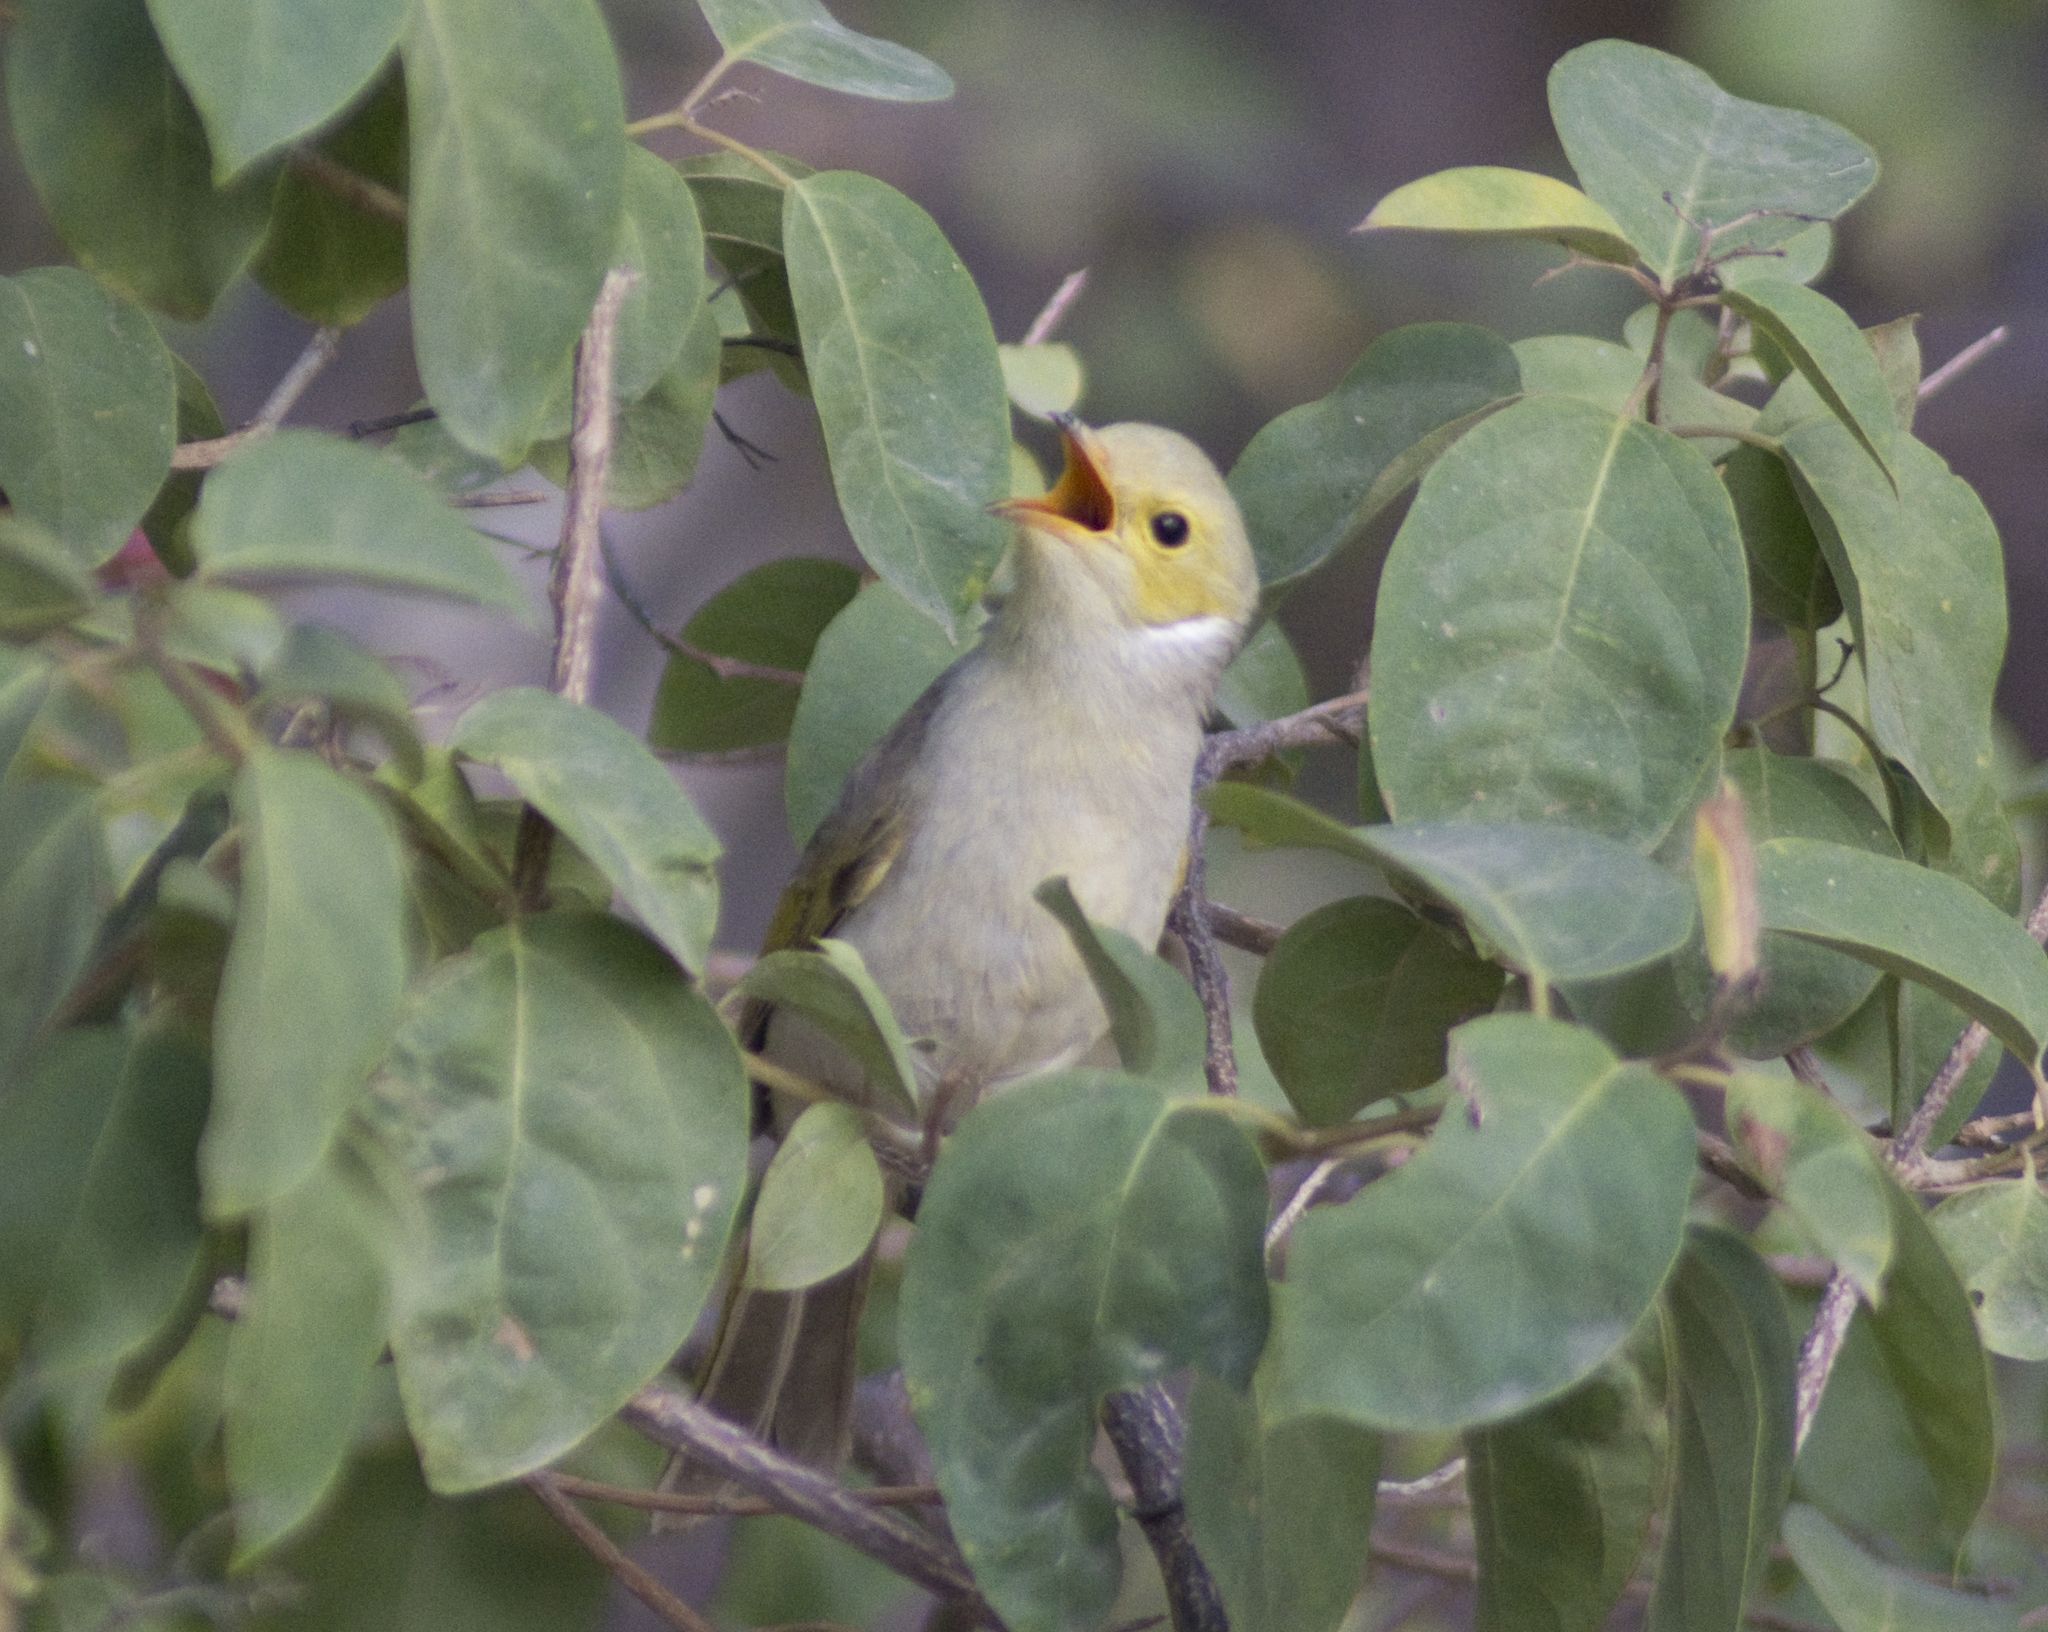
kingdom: Animalia
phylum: Chordata
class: Aves
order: Passeriformes
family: Meliphagidae
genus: Ptilotula
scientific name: Ptilotula penicillata
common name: White-plumed honeyeater
